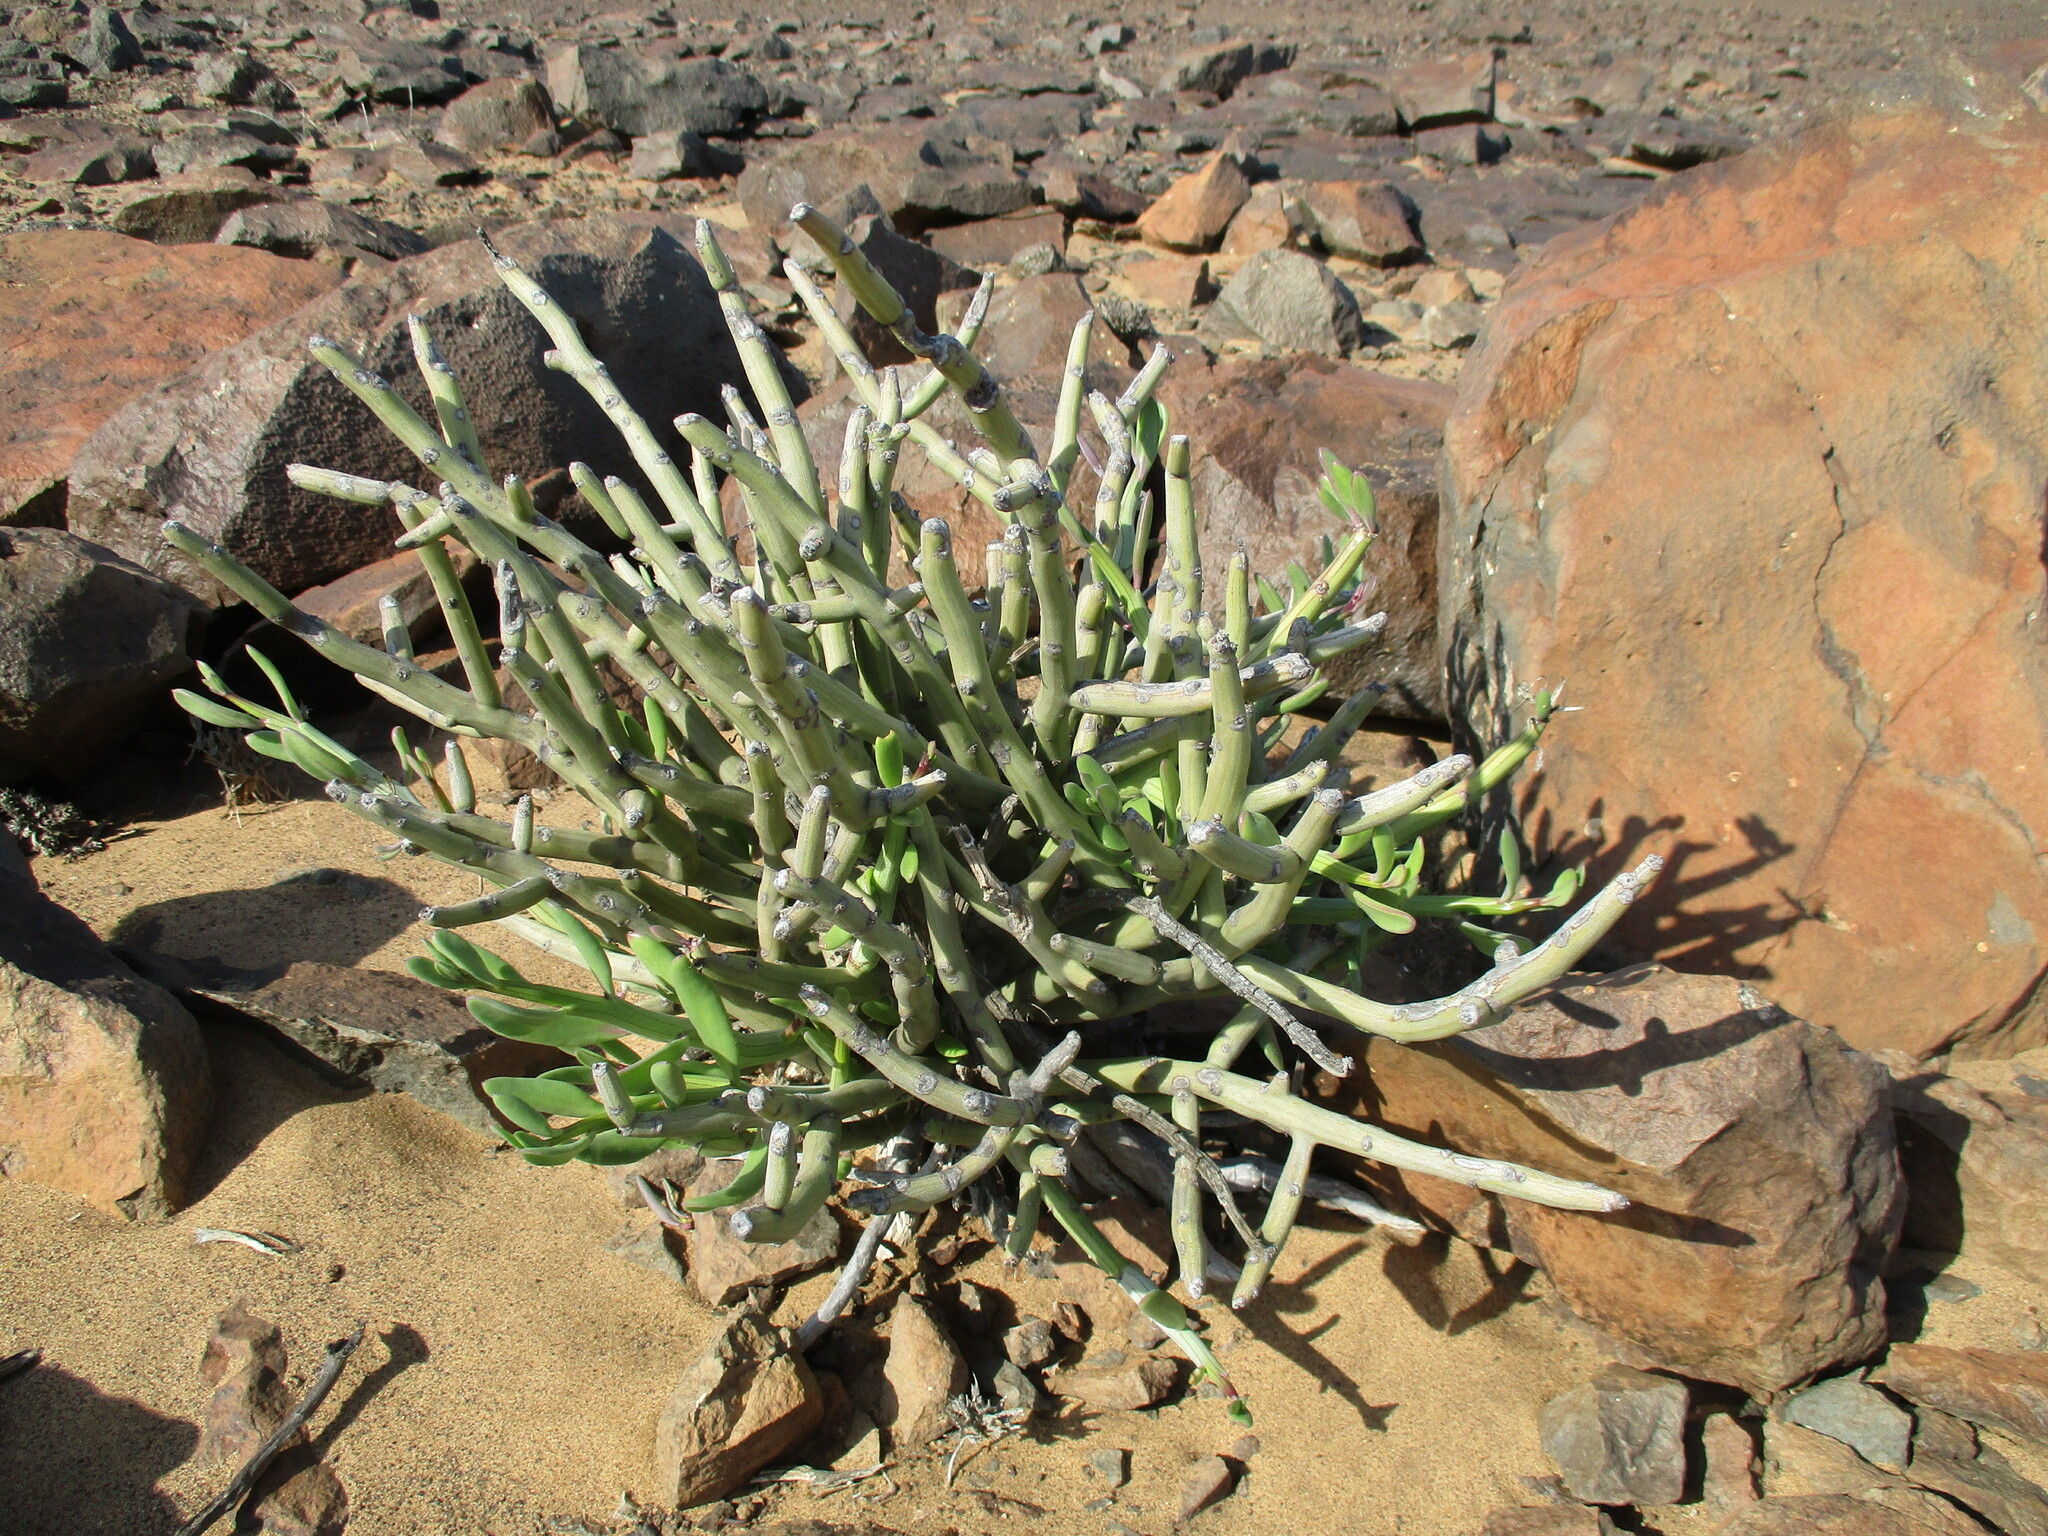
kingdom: Plantae
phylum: Tracheophyta
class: Magnoliopsida
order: Asterales
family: Asteraceae
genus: Curio
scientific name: Curio avasimontanus
